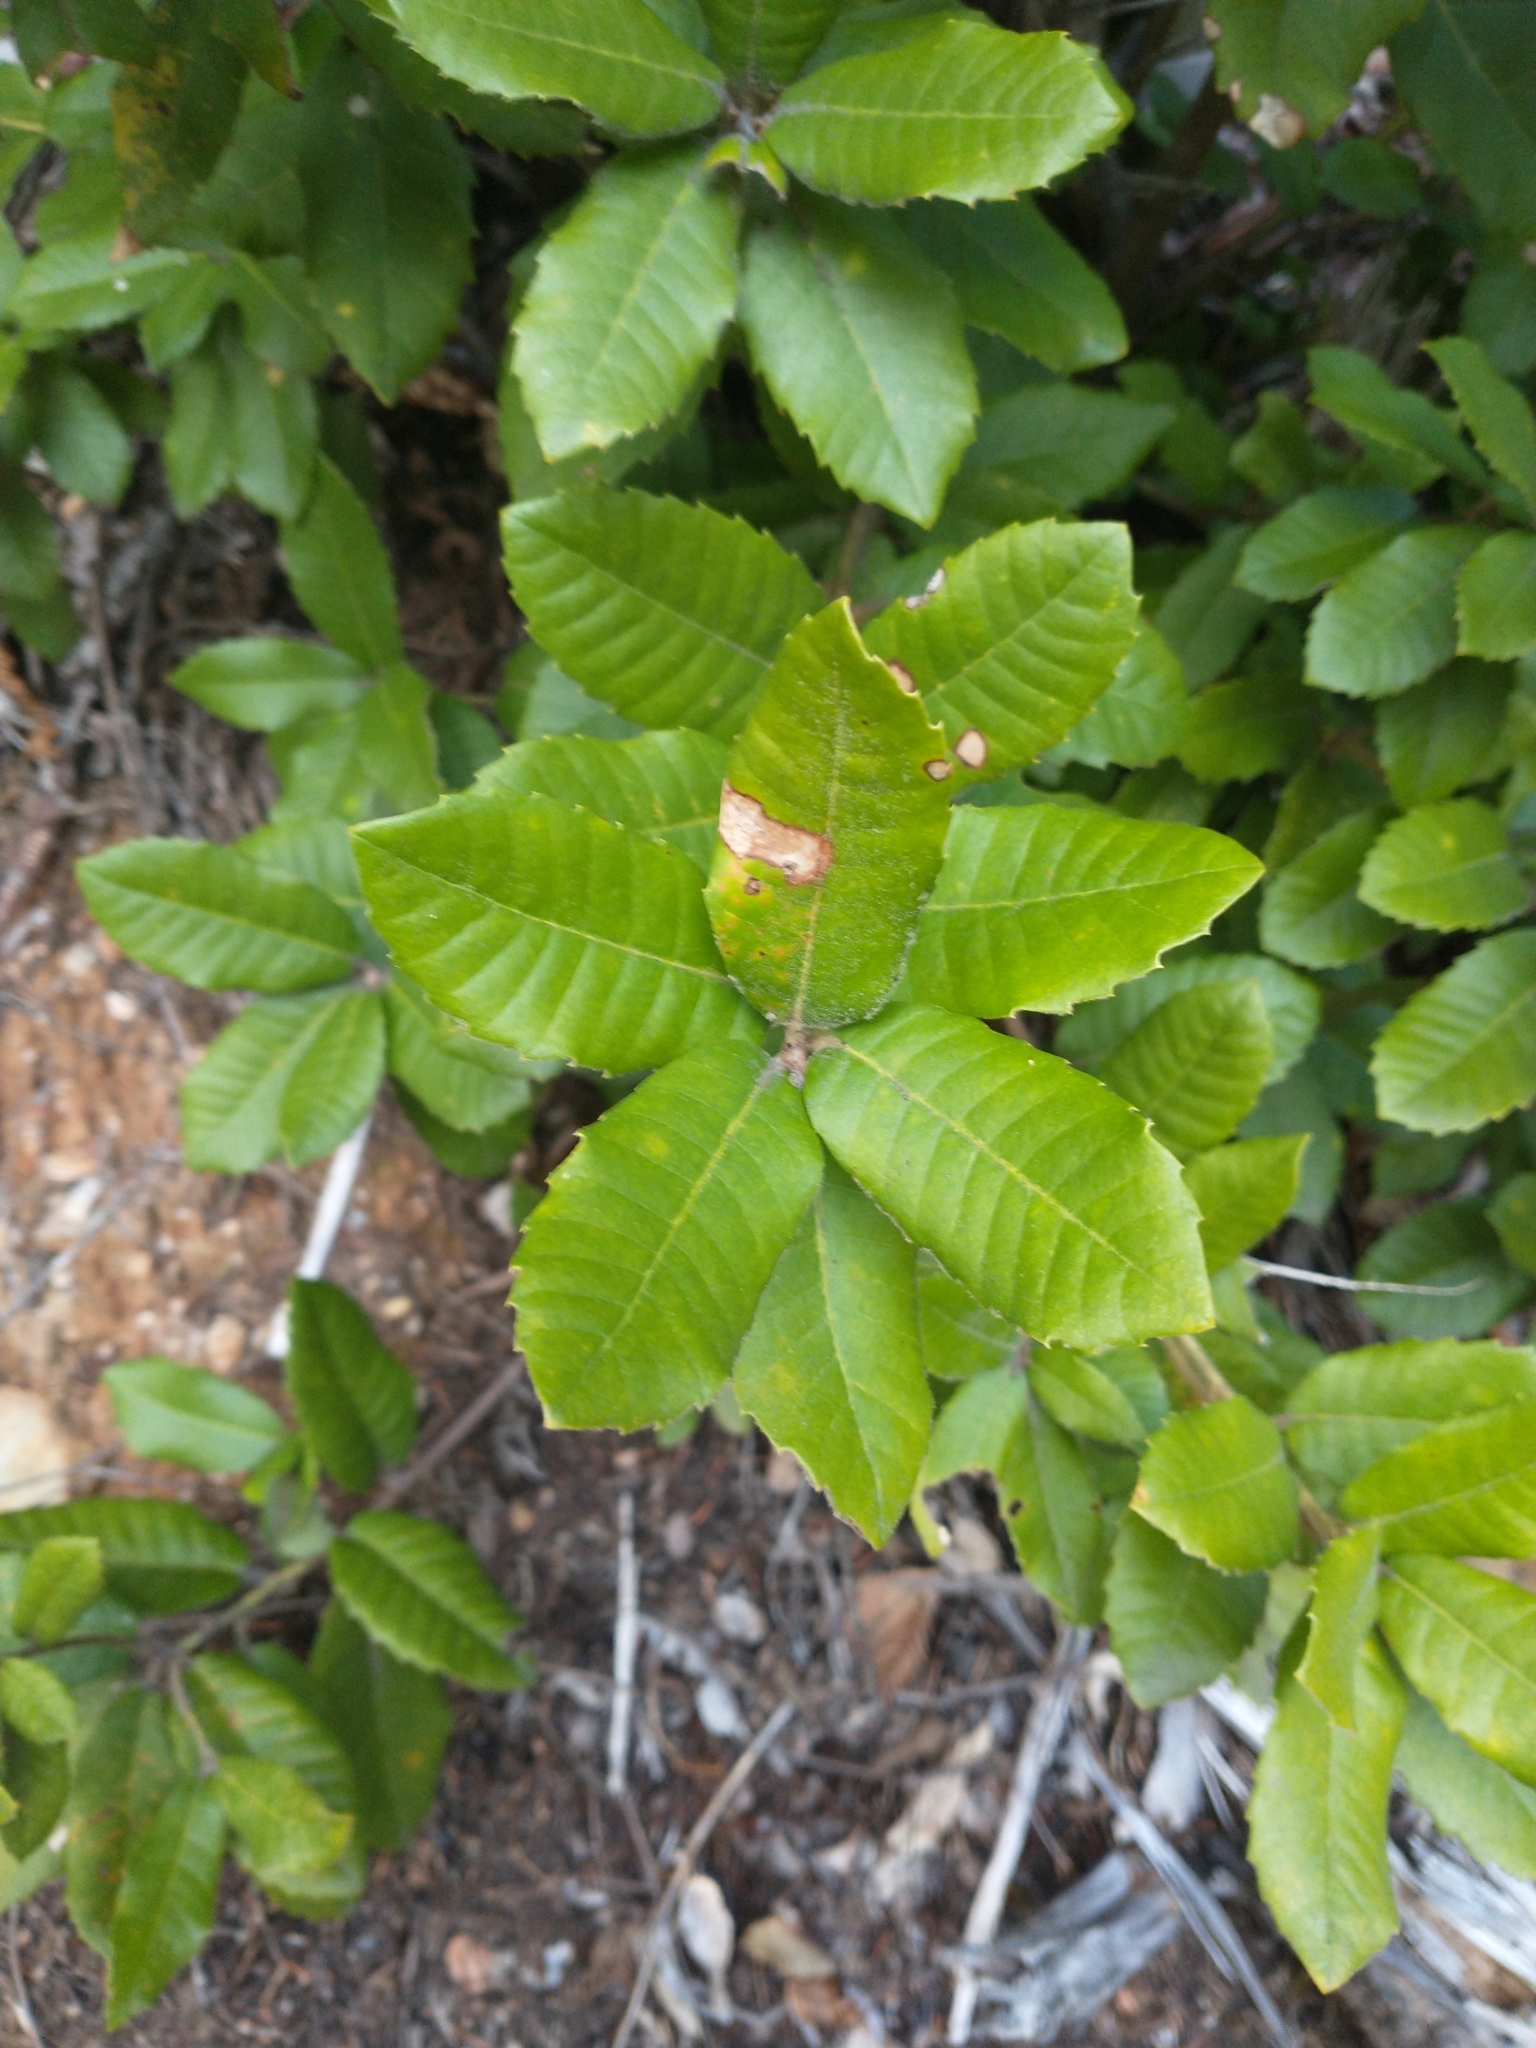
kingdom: Plantae
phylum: Tracheophyta
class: Magnoliopsida
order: Fagales
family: Fagaceae
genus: Notholithocarpus
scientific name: Notholithocarpus densiflorus
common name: Tan bark oak
